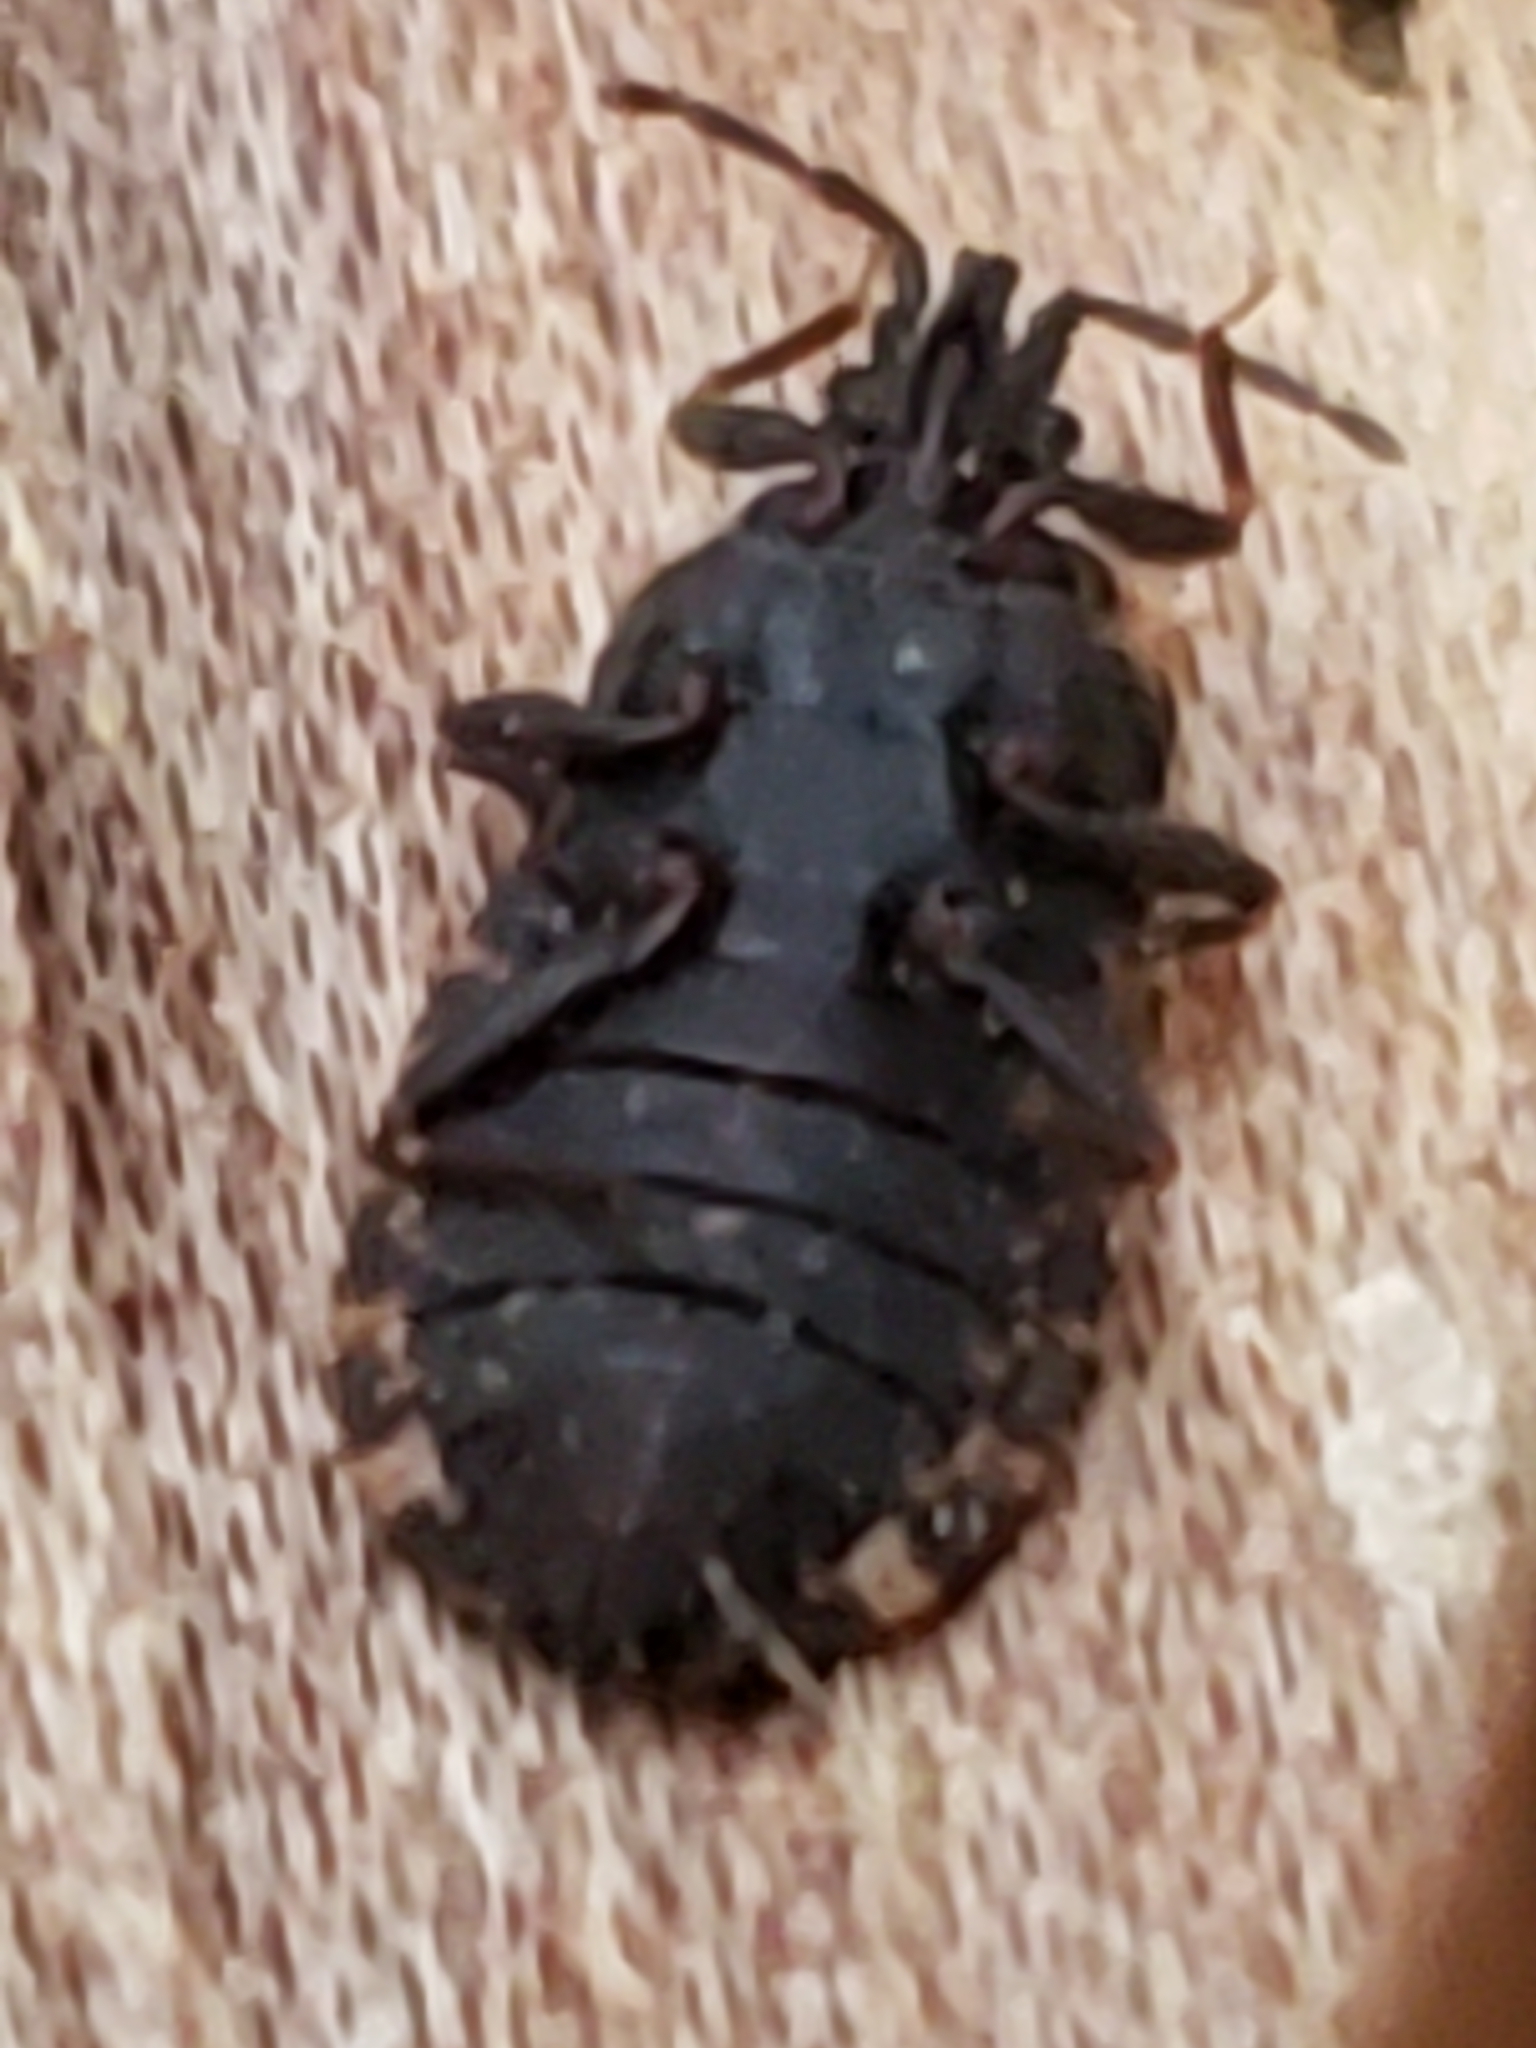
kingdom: Animalia
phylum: Arthropoda
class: Insecta
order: Hemiptera
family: Aradidae
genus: Mezira
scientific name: Mezira
